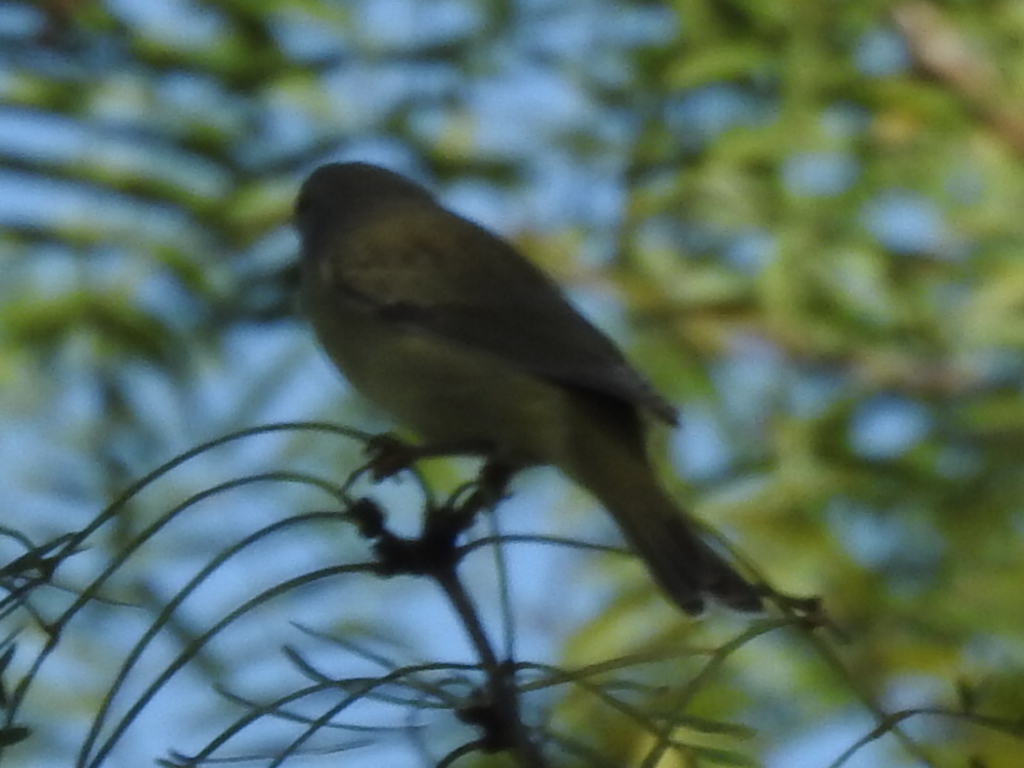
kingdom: Animalia
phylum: Chordata
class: Aves
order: Passeriformes
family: Parulidae
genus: Leiothlypis
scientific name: Leiothlypis celata
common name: Orange-crowned warbler
